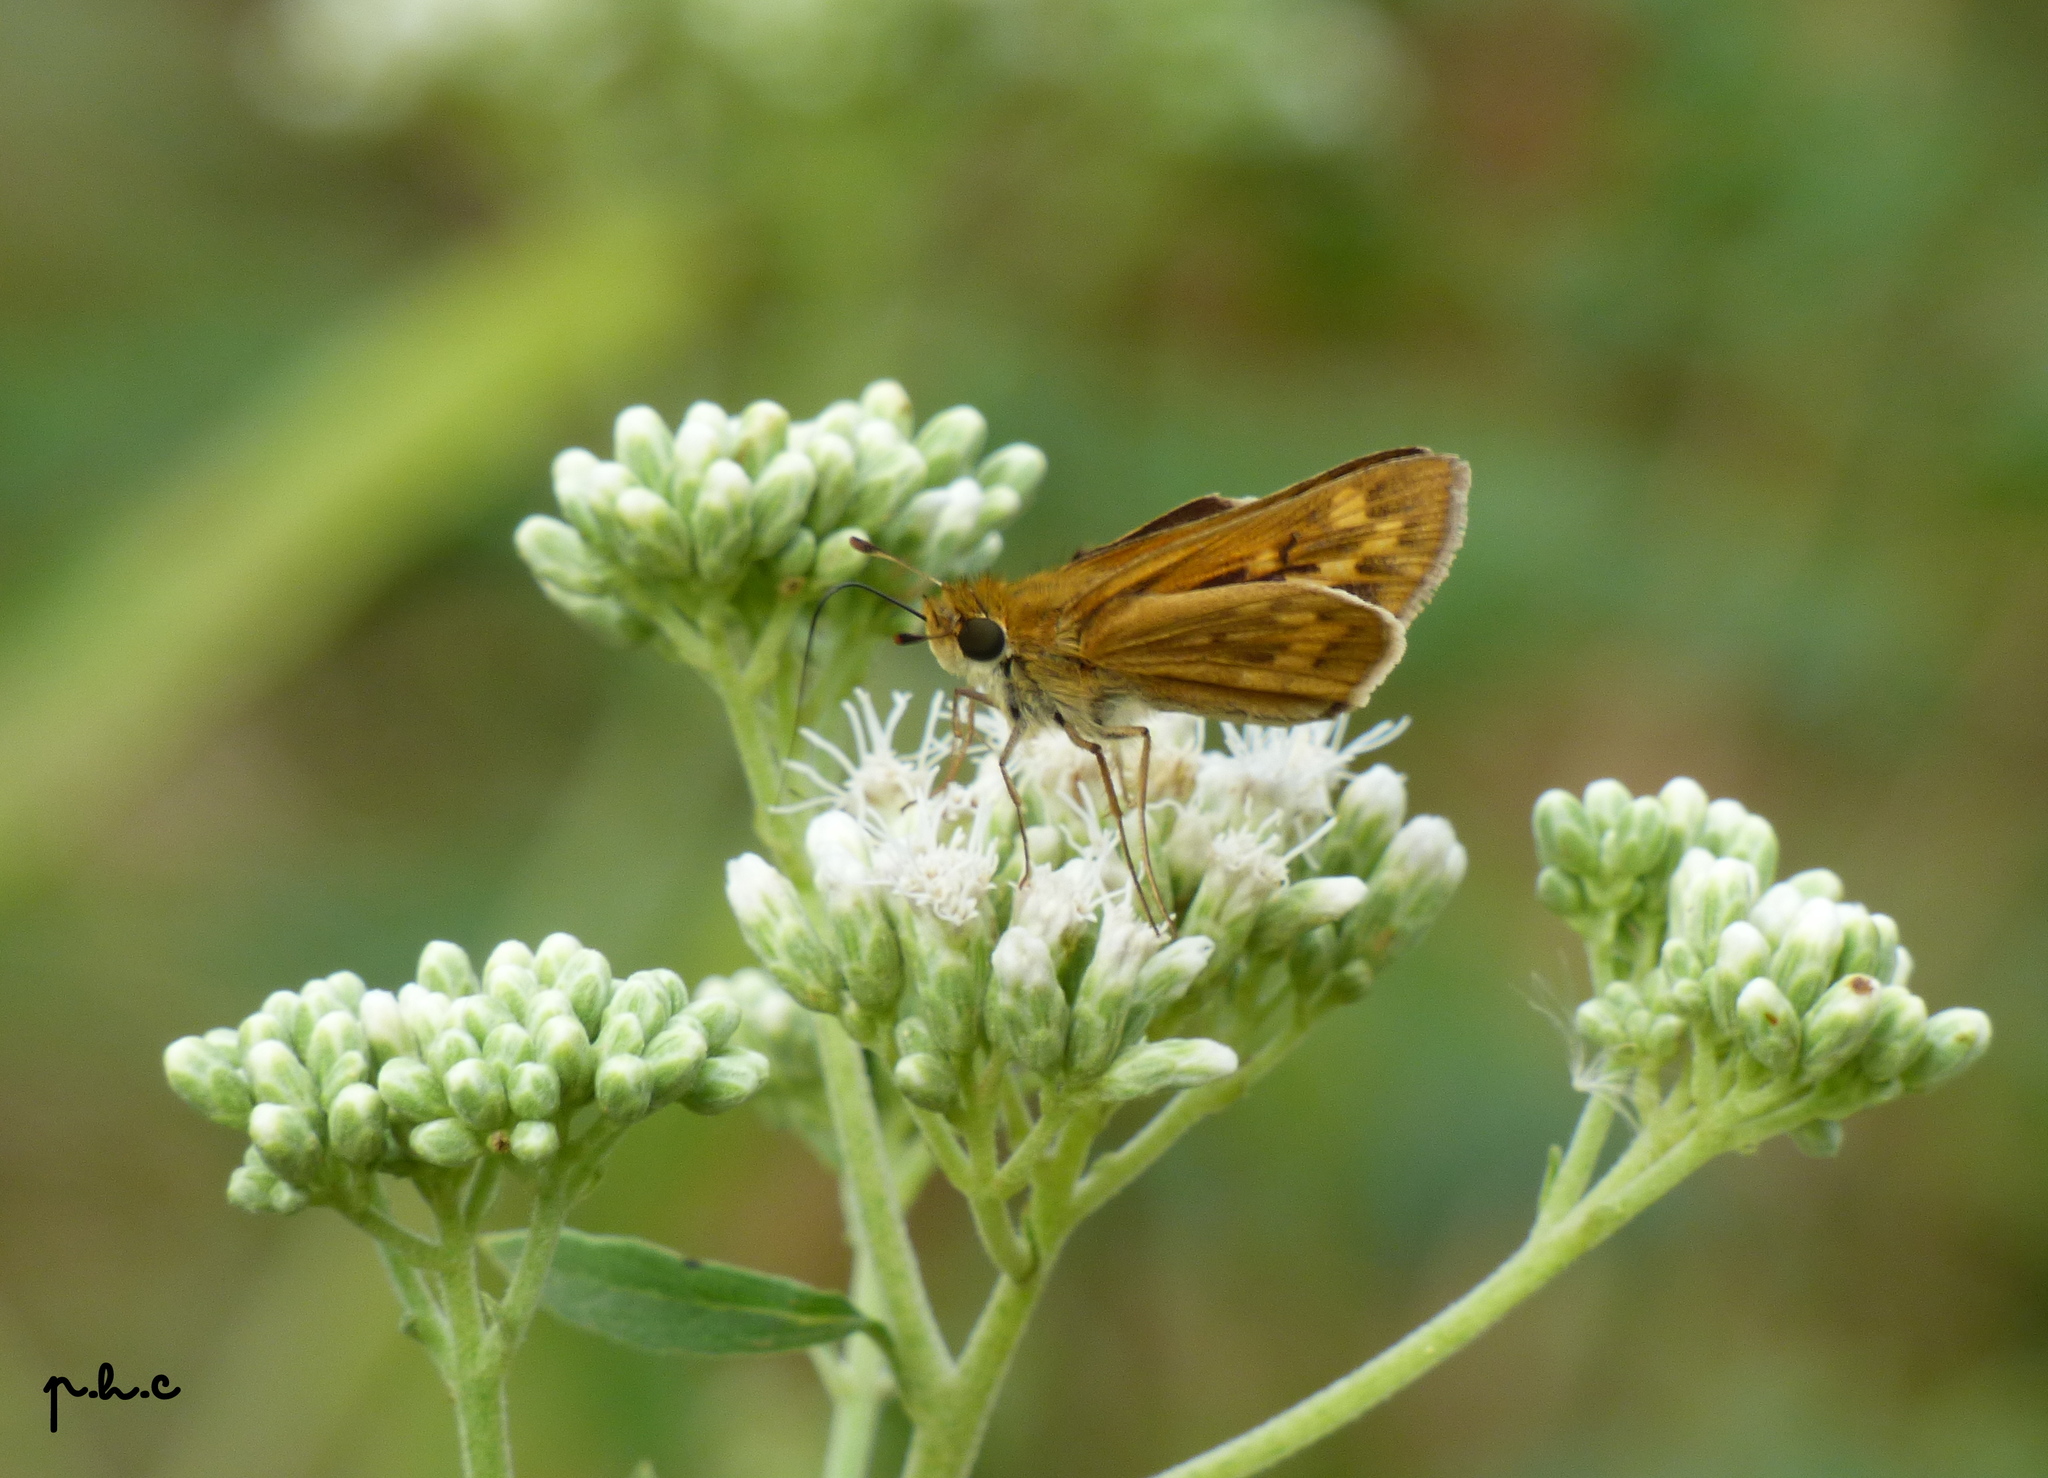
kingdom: Animalia
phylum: Arthropoda
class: Insecta
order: Lepidoptera
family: Hesperiidae
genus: Hylephila
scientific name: Hylephila phyleus
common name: Fiery skipper
